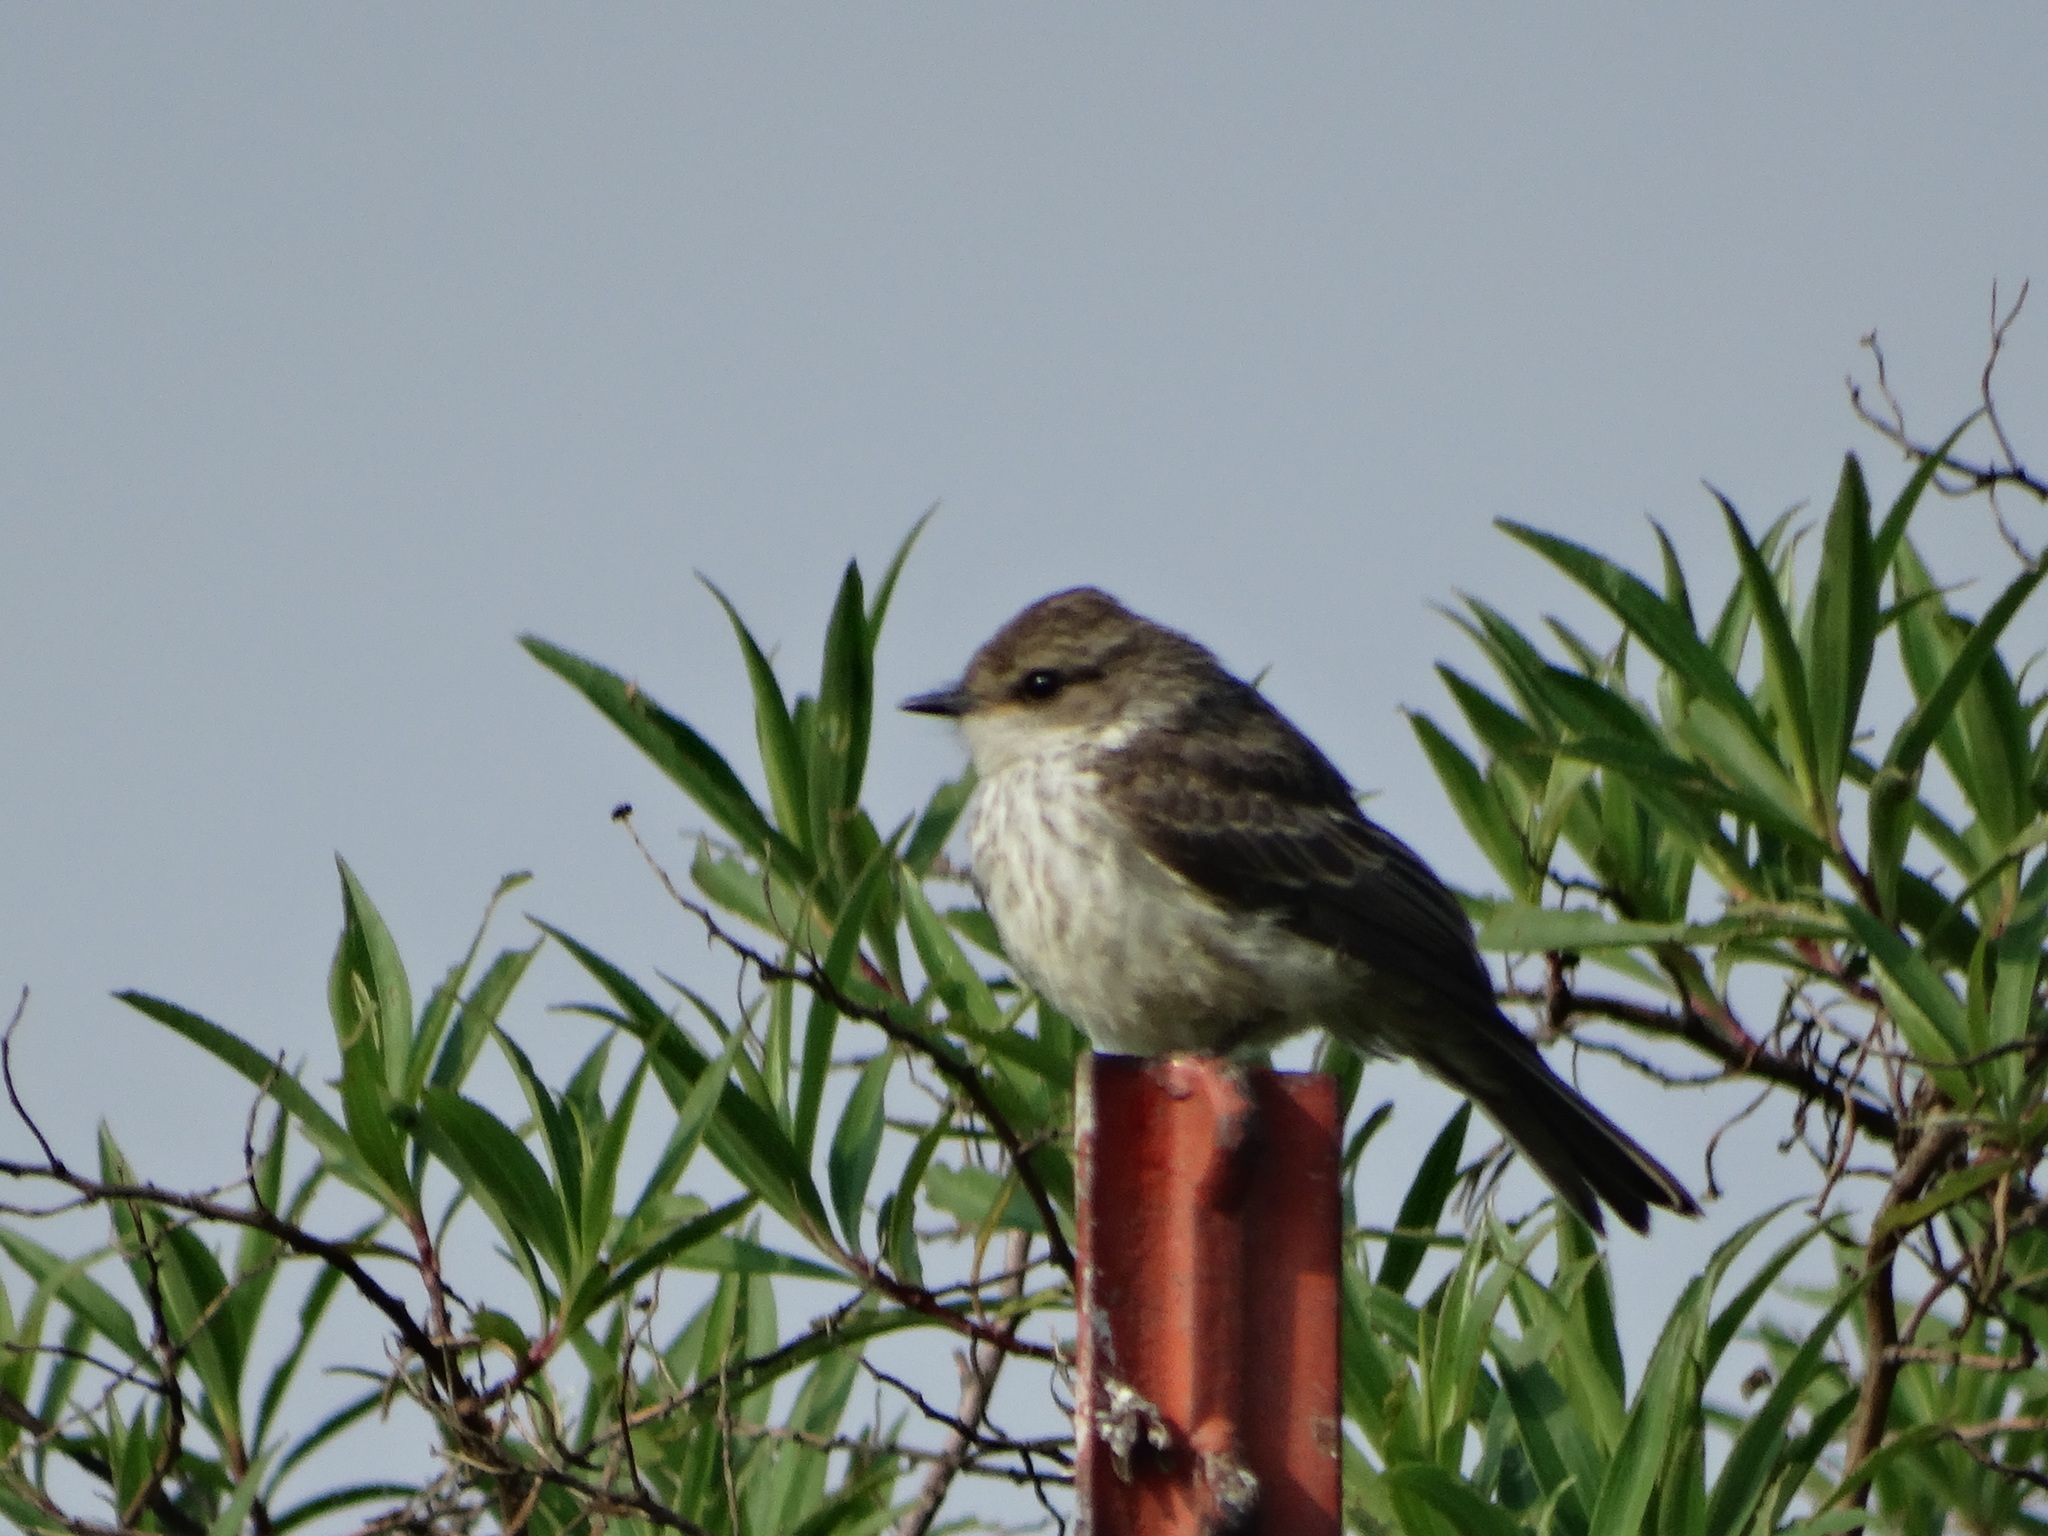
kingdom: Animalia
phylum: Chordata
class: Aves
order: Passeriformes
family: Tyrannidae
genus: Pyrocephalus
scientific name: Pyrocephalus rubinus
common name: Vermilion flycatcher
